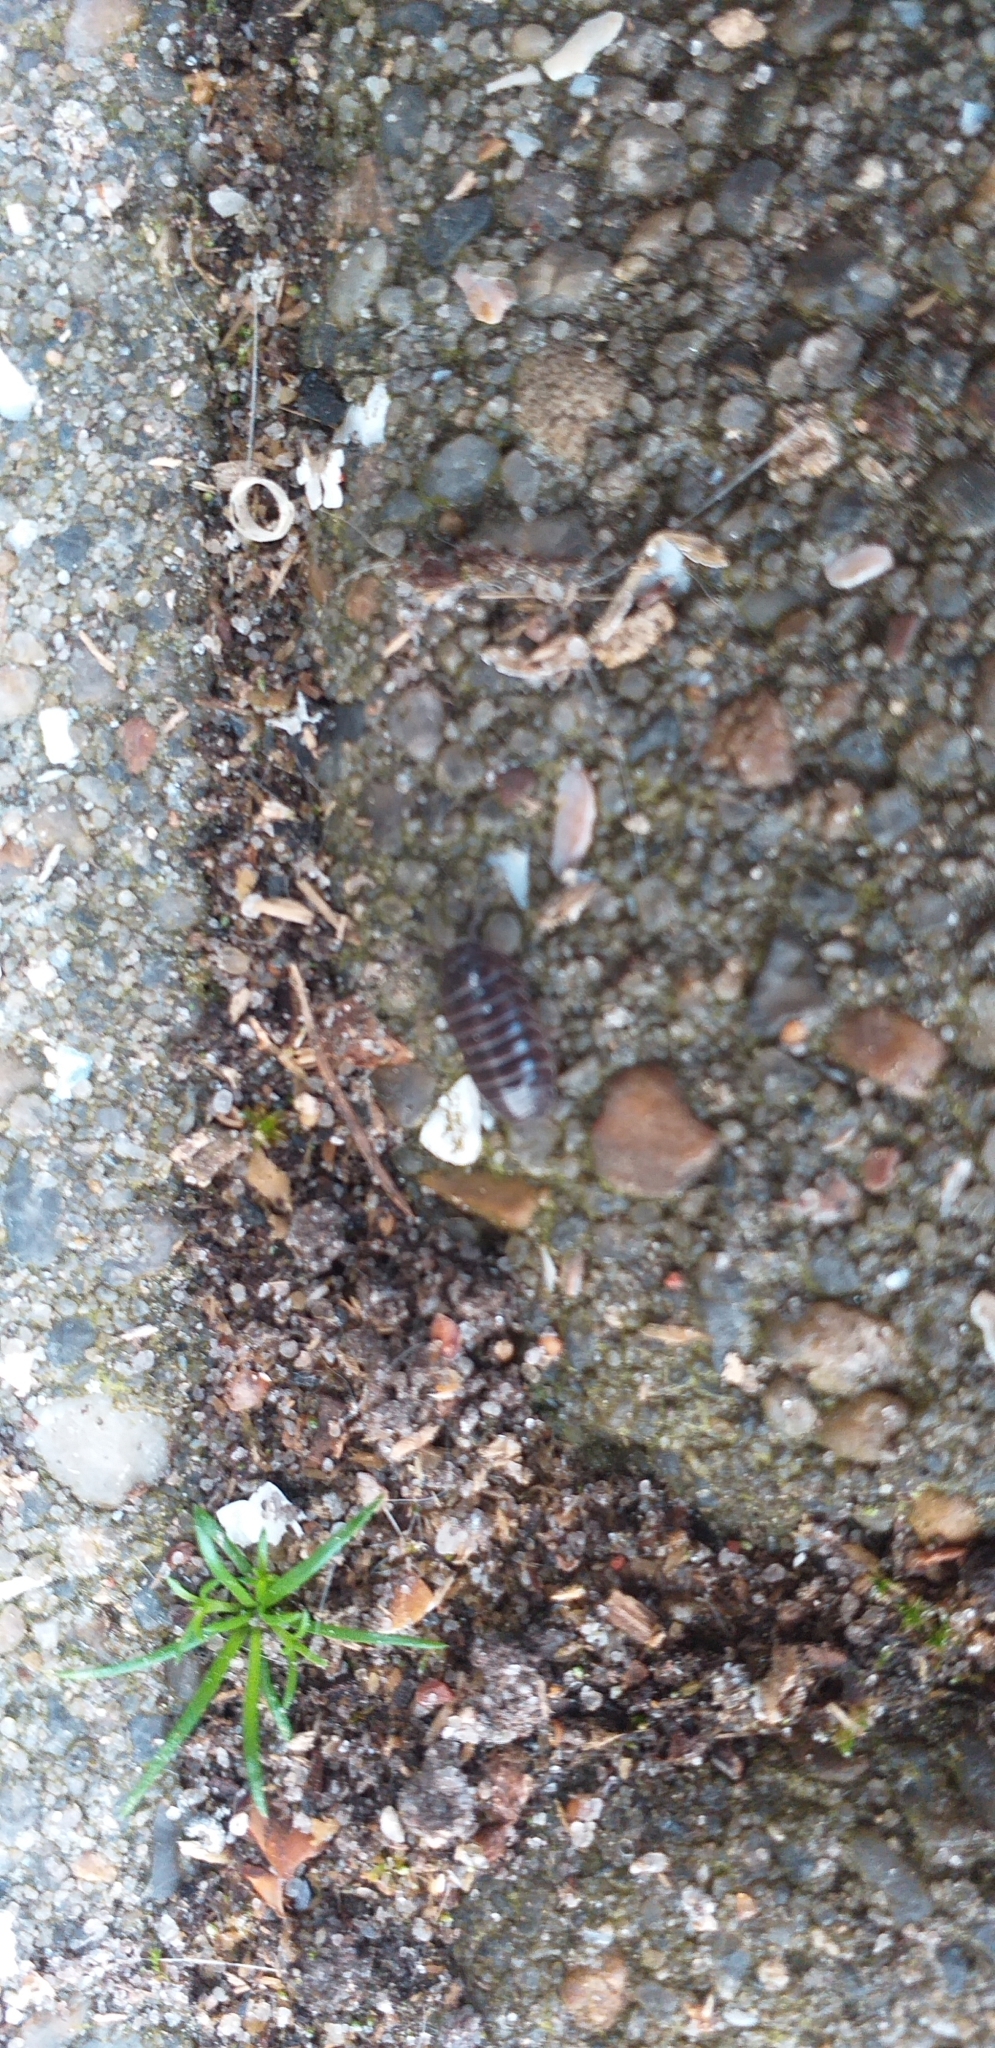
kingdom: Animalia
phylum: Arthropoda
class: Malacostraca
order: Isopoda
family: Armadillidiidae
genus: Armadillidium
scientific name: Armadillidium vulgare
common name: Common pill woodlouse
